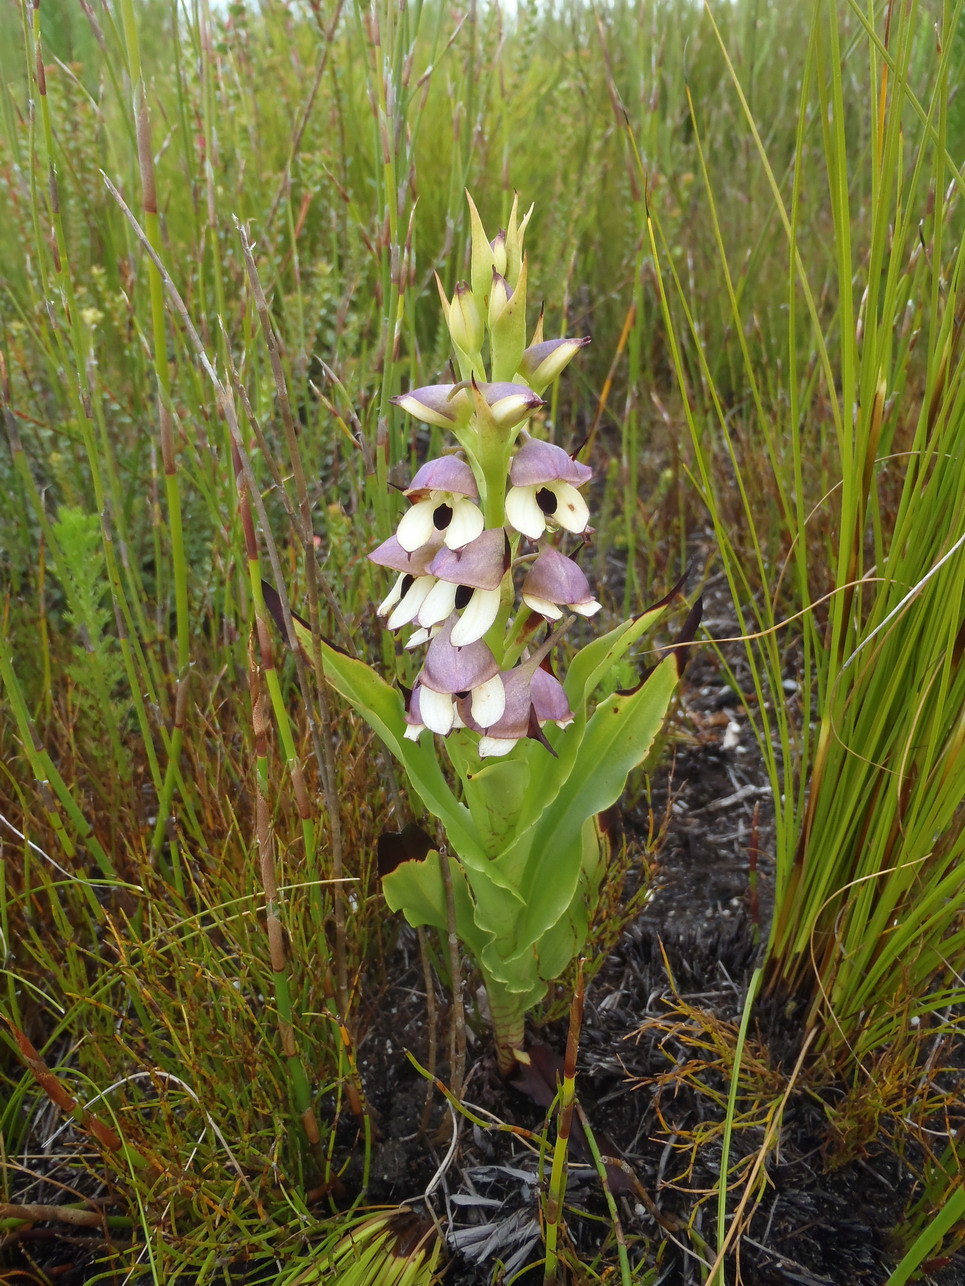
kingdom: Plantae
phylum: Tracheophyta
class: Liliopsida
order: Asparagales
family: Orchidaceae
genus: Disa
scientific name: Disa cornuta
